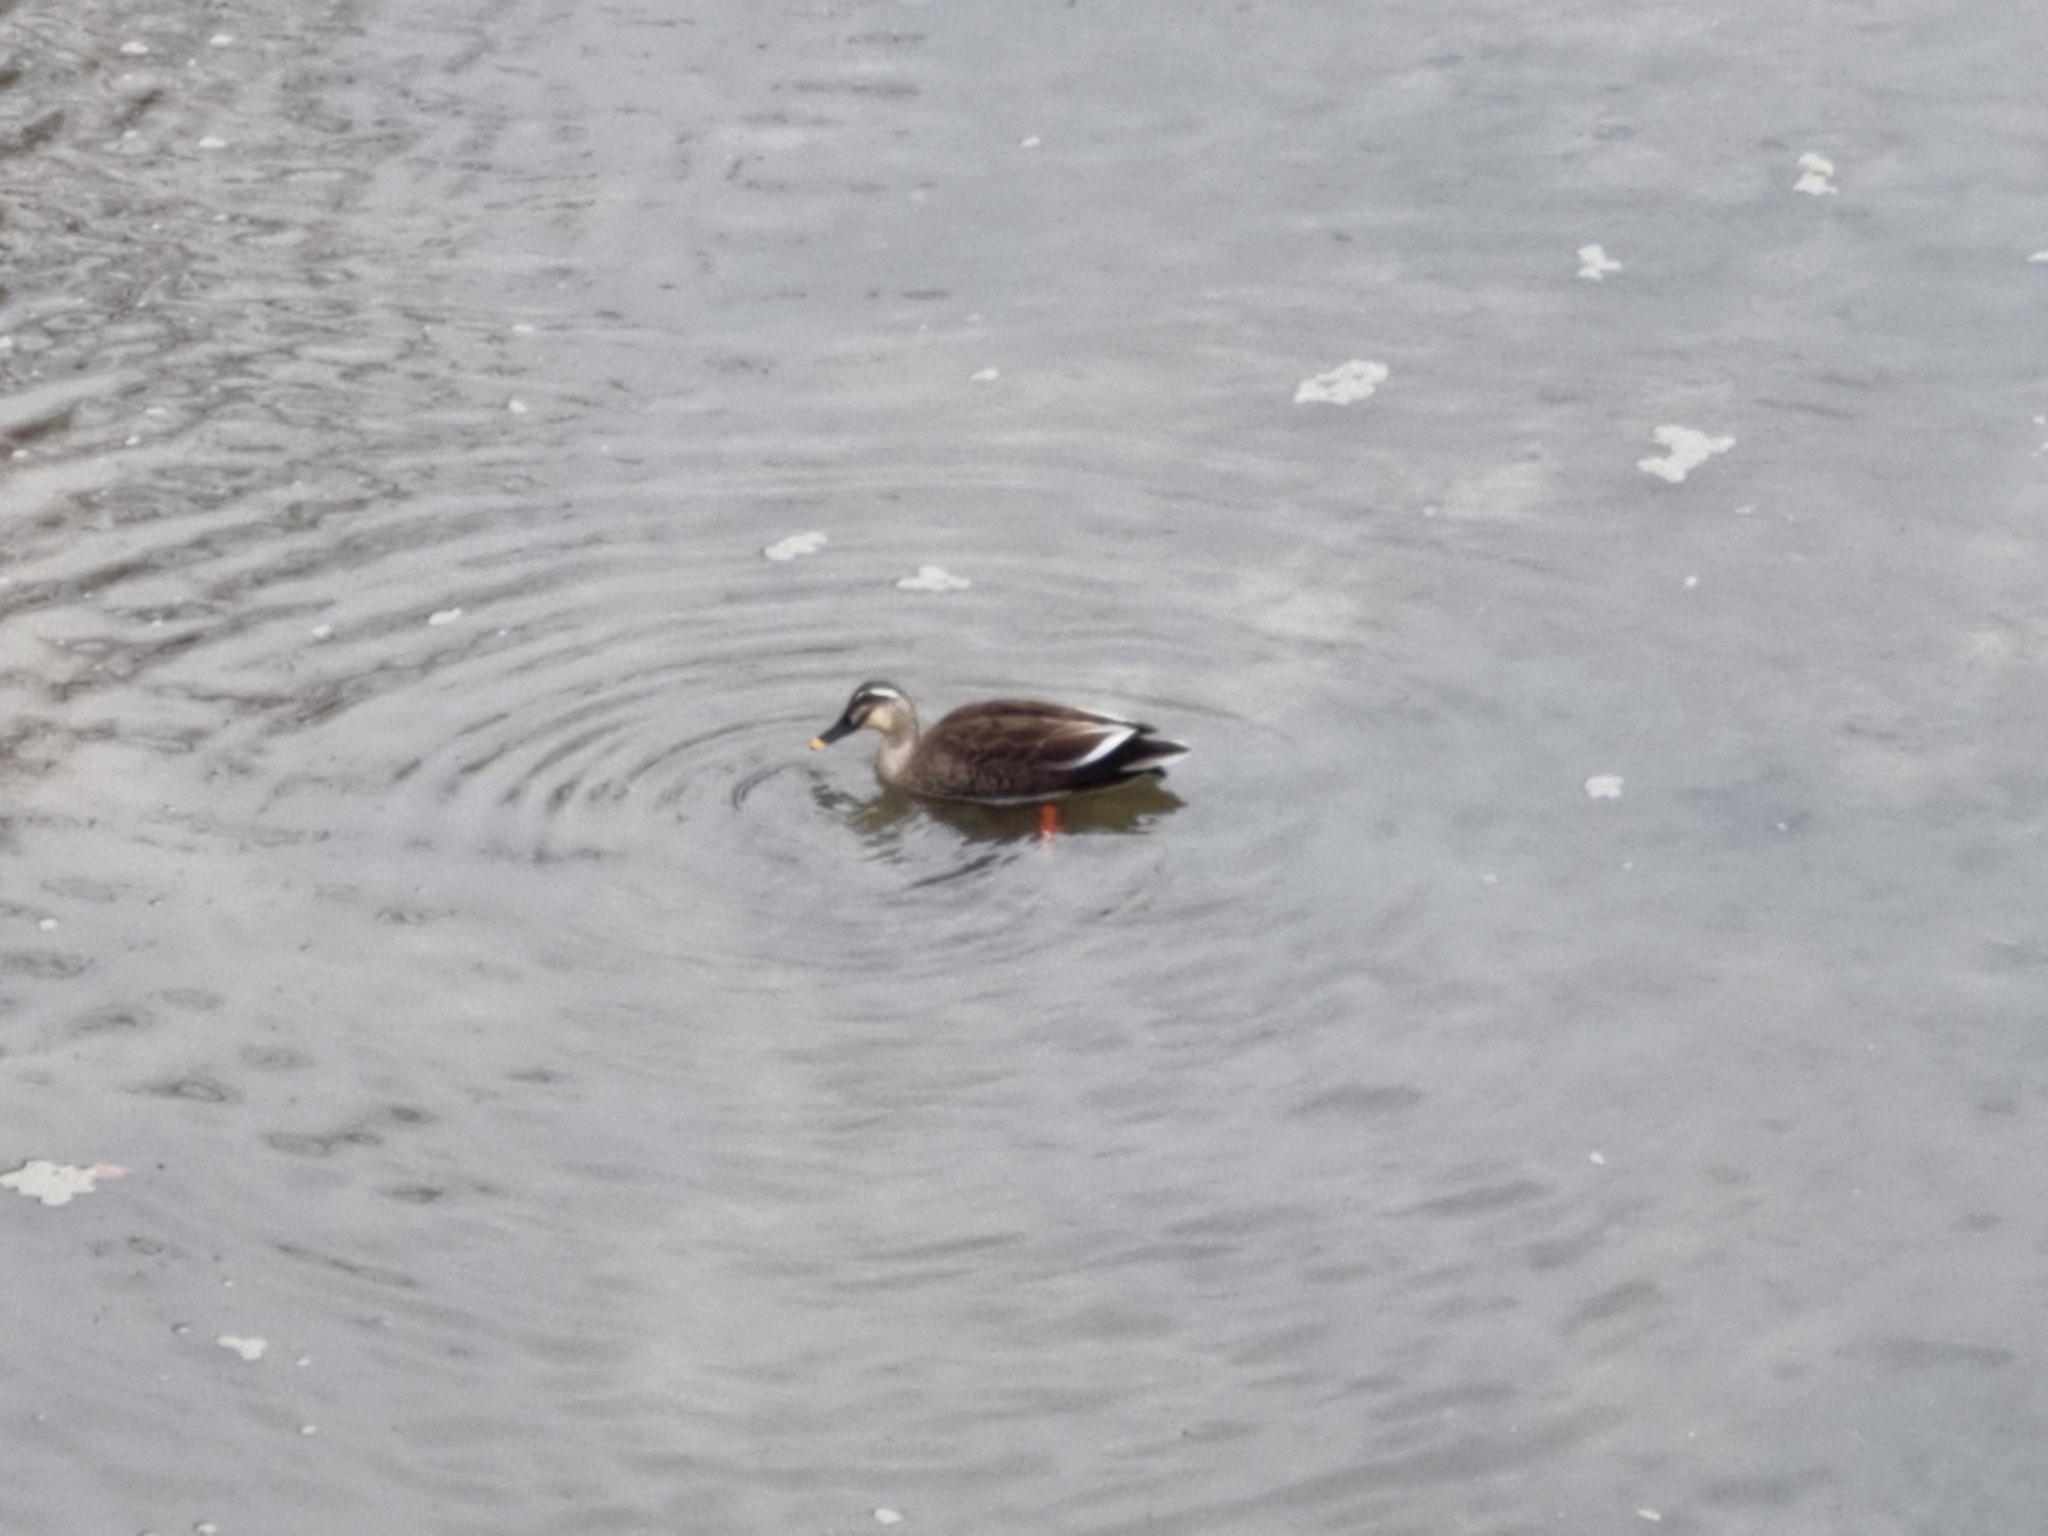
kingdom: Animalia
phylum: Chordata
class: Aves
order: Anseriformes
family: Anatidae
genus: Anas
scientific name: Anas zonorhyncha
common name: Eastern spot-billed duck
